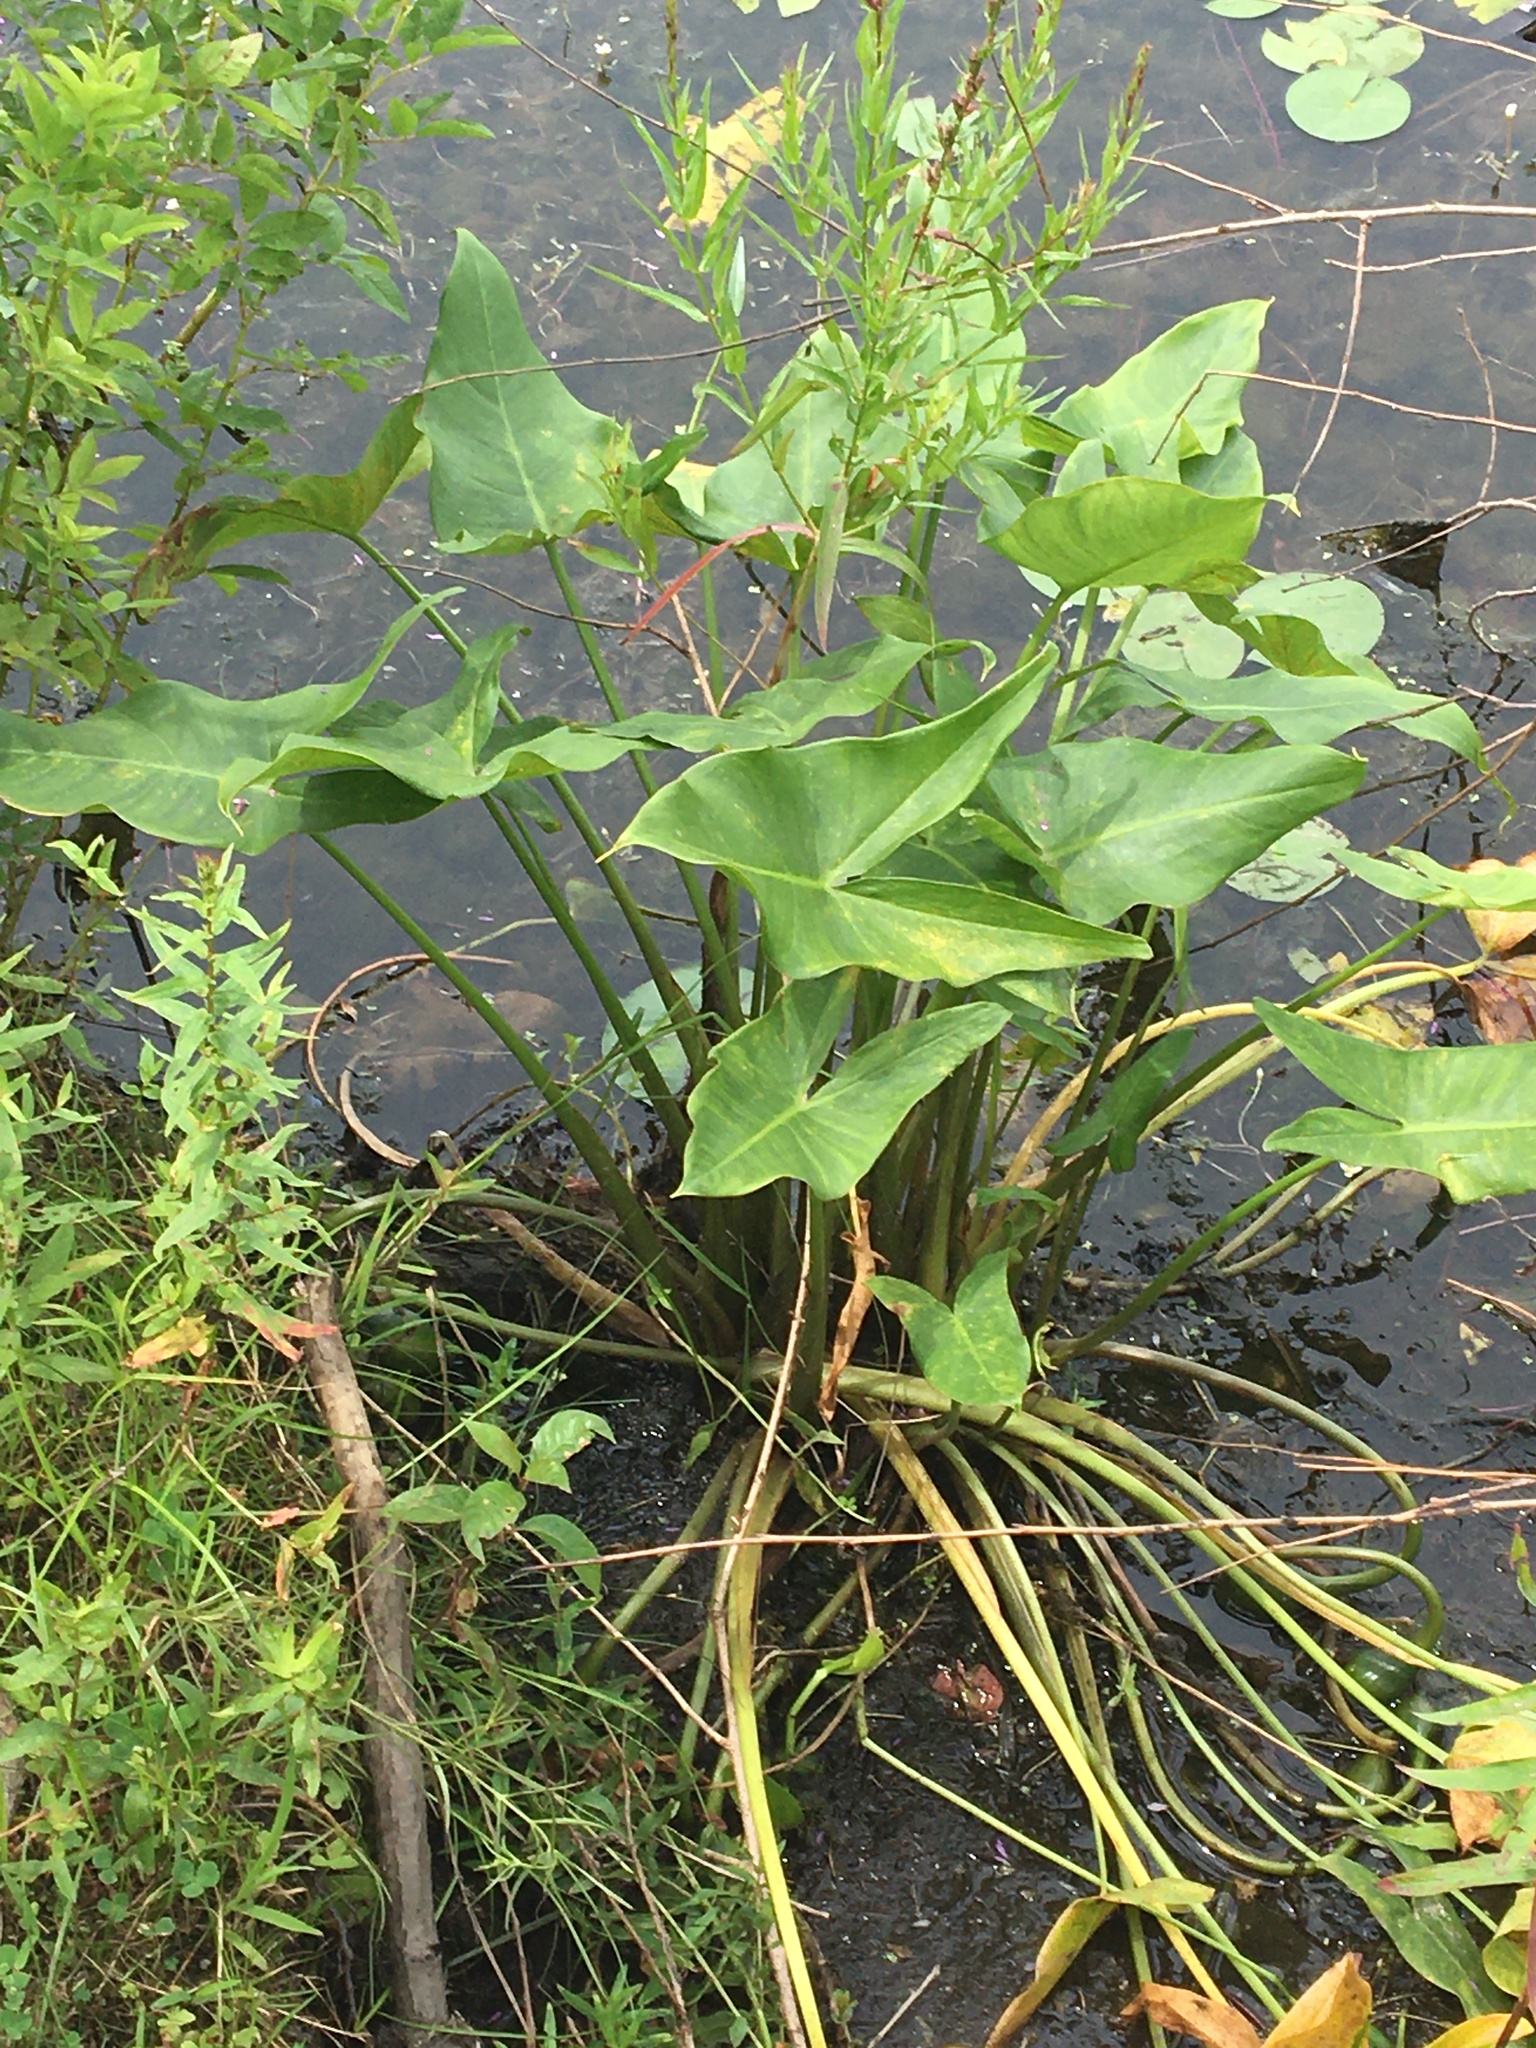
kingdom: Plantae
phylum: Tracheophyta
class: Liliopsida
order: Alismatales
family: Araceae
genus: Peltandra
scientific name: Peltandra virginica
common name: Arrow arum
